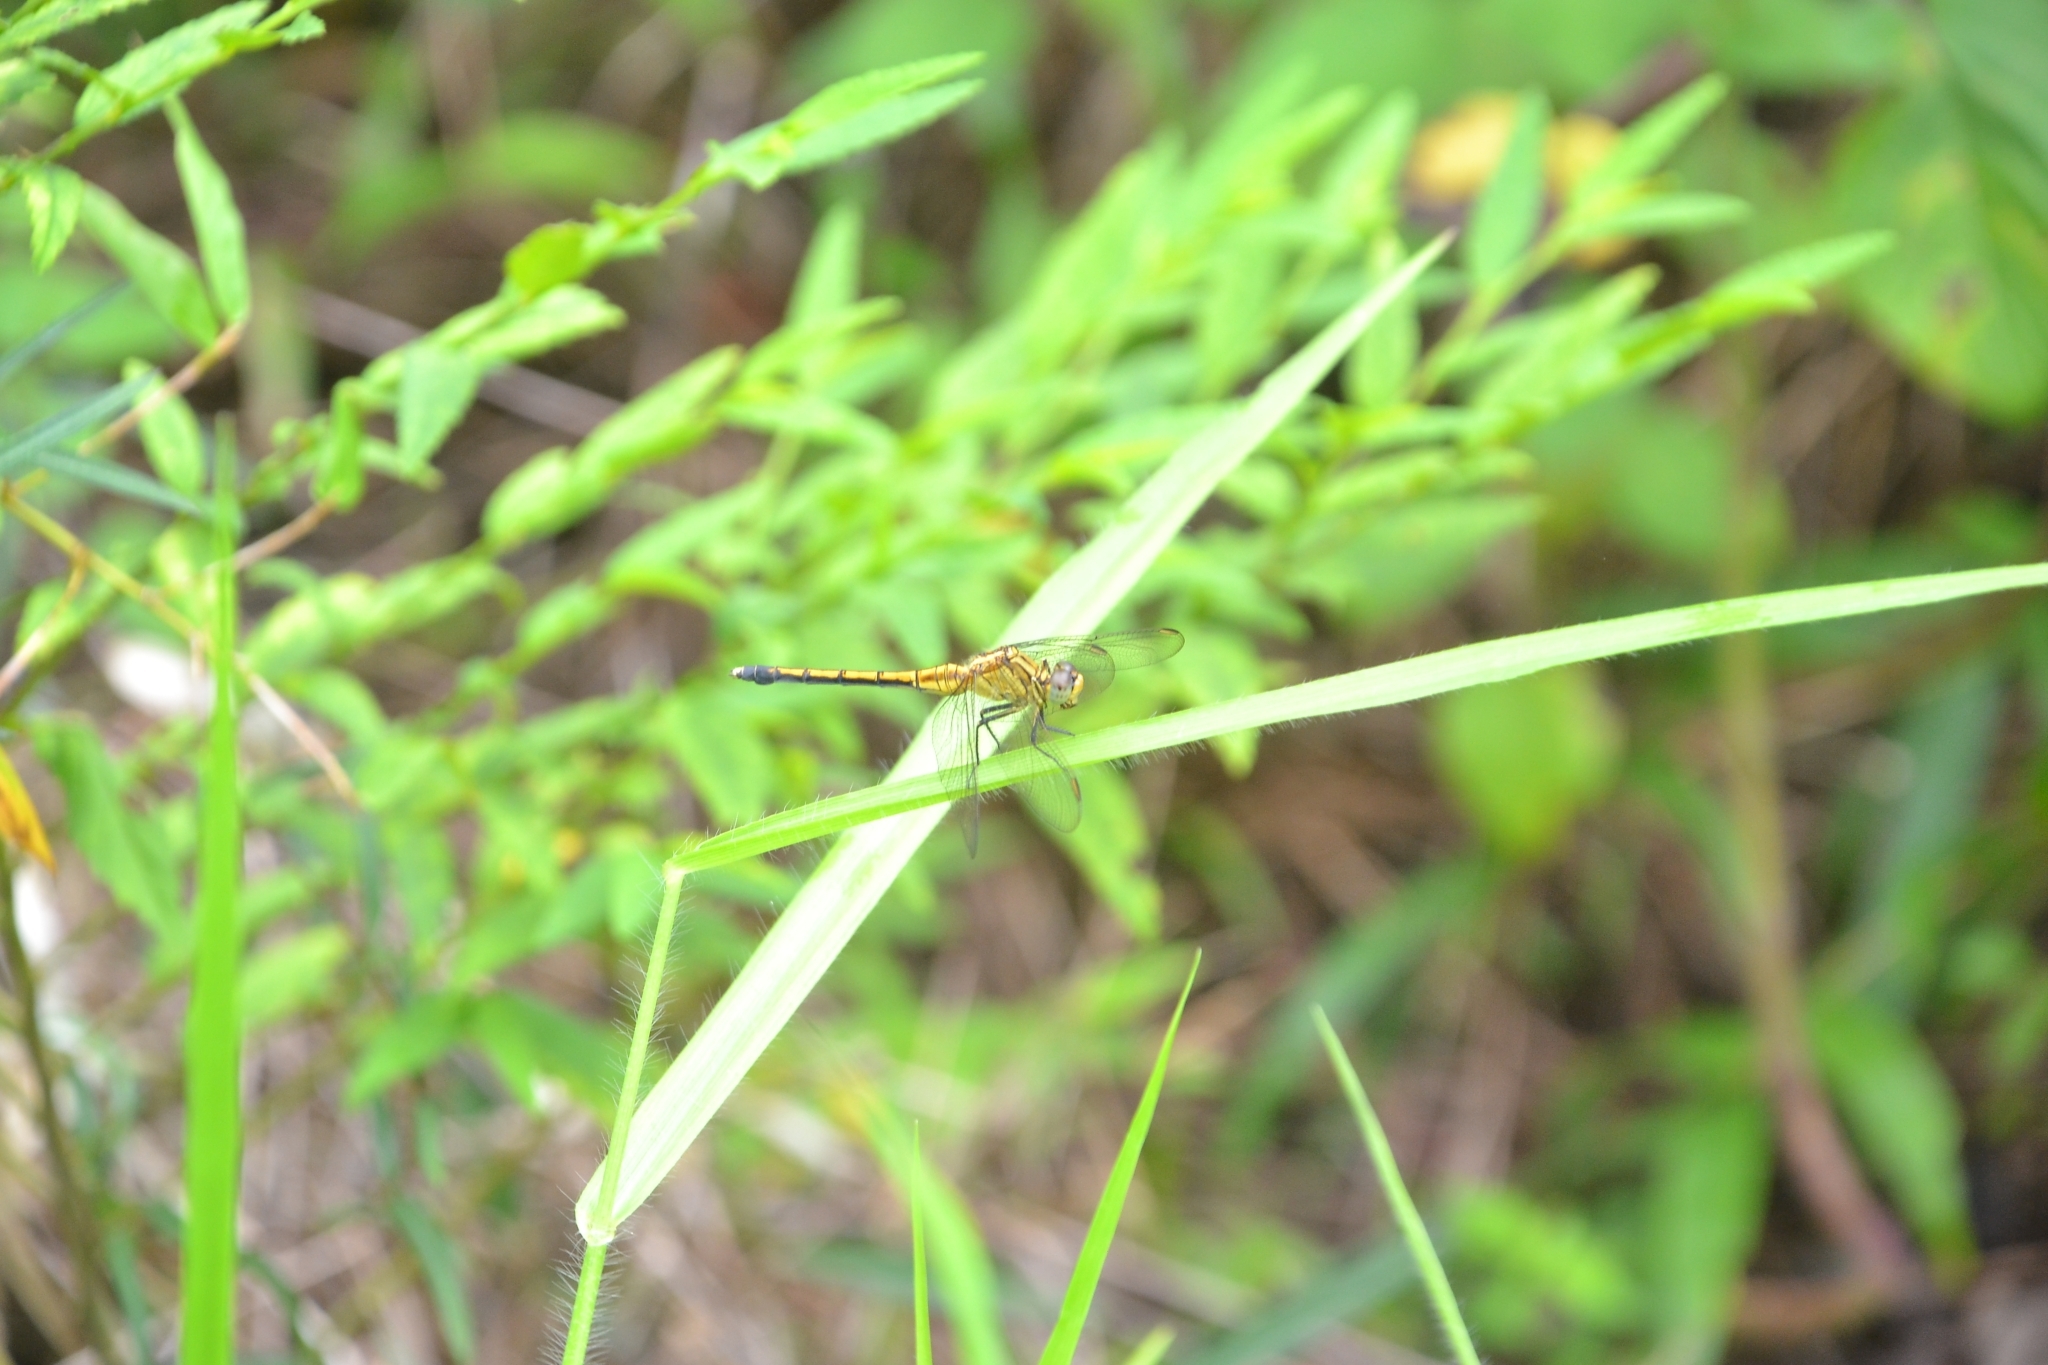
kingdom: Animalia
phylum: Arthropoda
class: Insecta
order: Odonata
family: Libellulidae
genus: Orthetrum
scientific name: Orthetrum luzonicum
